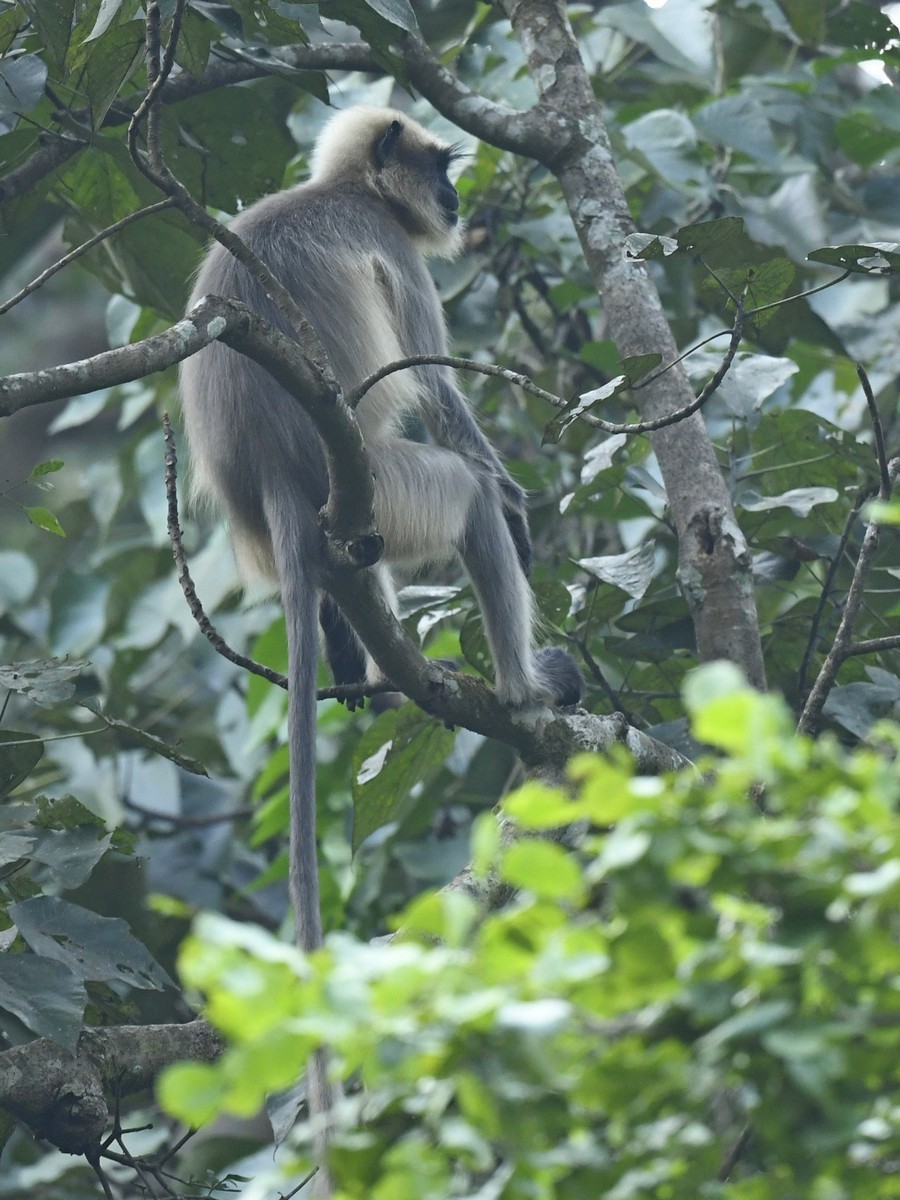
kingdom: Animalia
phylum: Chordata
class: Mammalia
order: Primates
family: Cercopithecidae
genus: Semnopithecus
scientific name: Semnopithecus hypoleucos
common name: Black-footed gray langur
